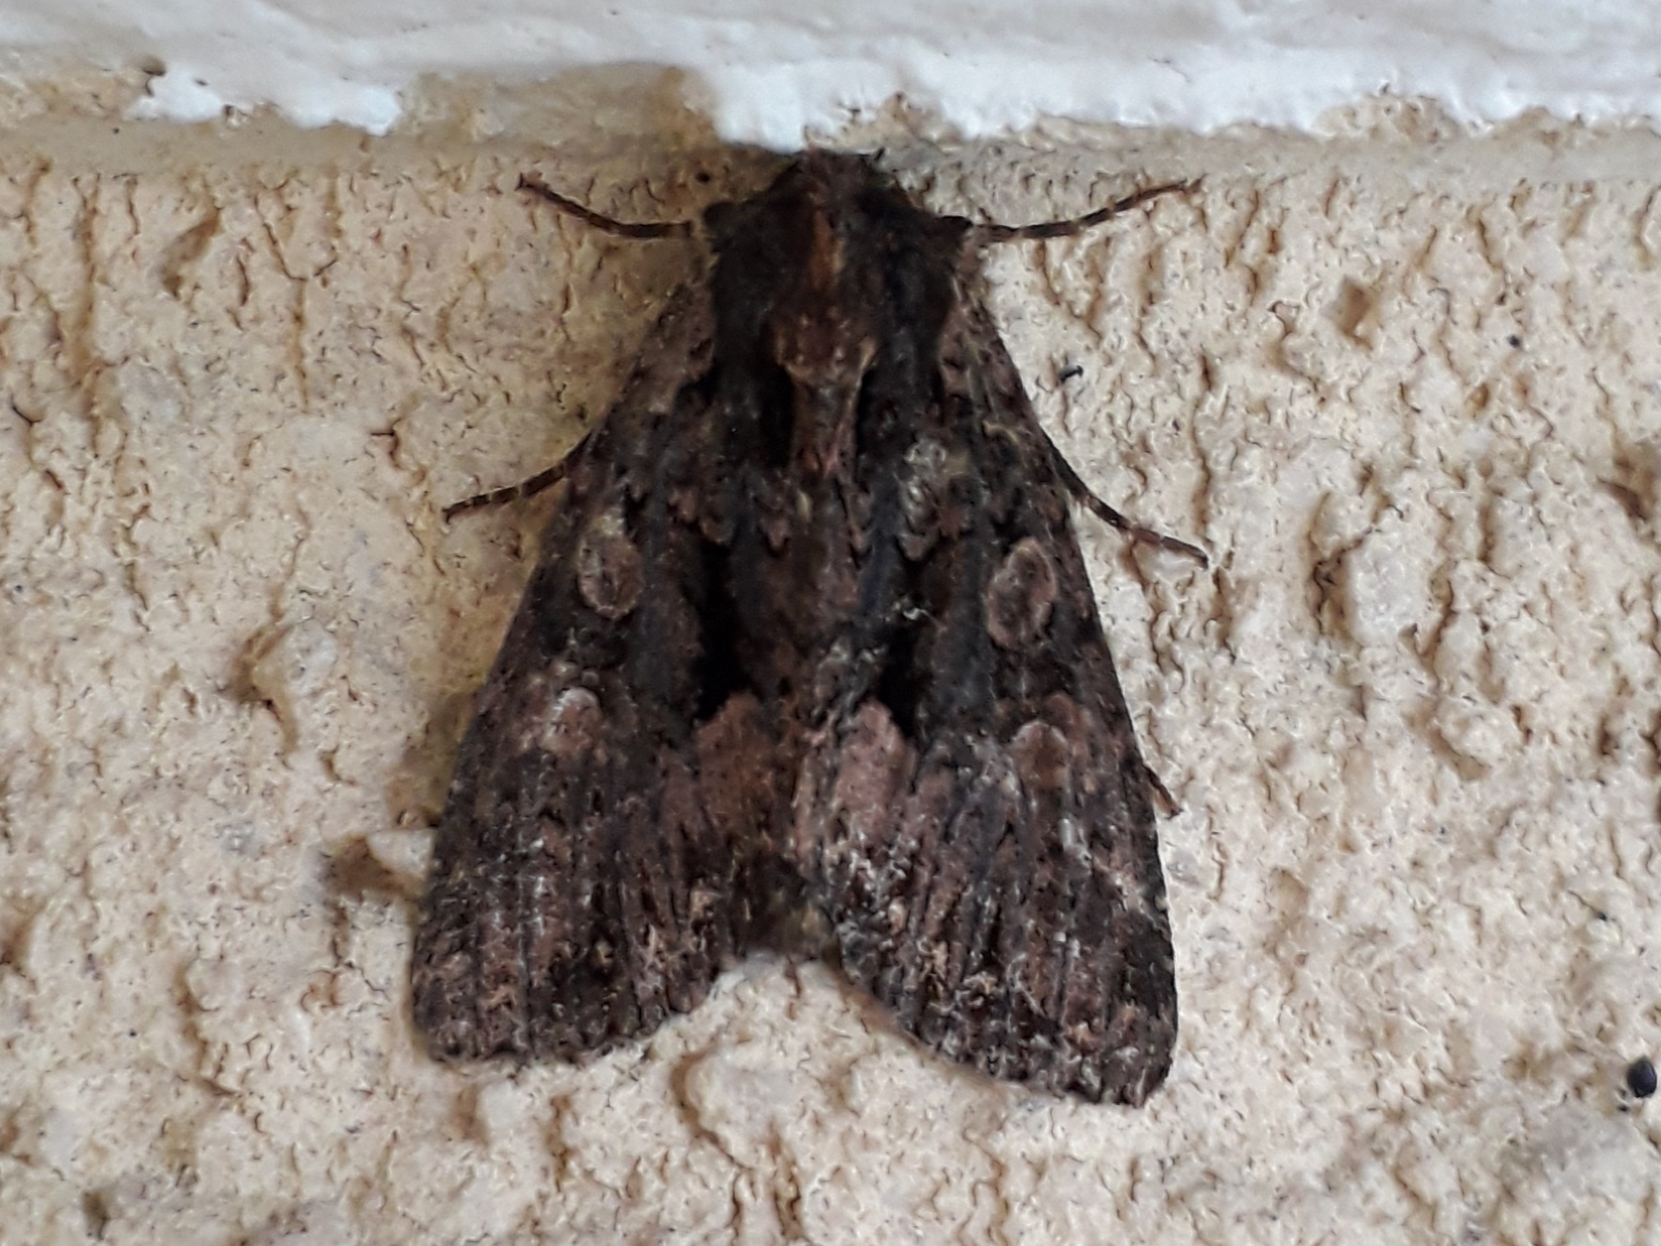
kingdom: Animalia
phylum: Arthropoda
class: Insecta
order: Lepidoptera
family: Noctuidae
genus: Mniotype
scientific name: Mniotype satura
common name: Beautiful arches
